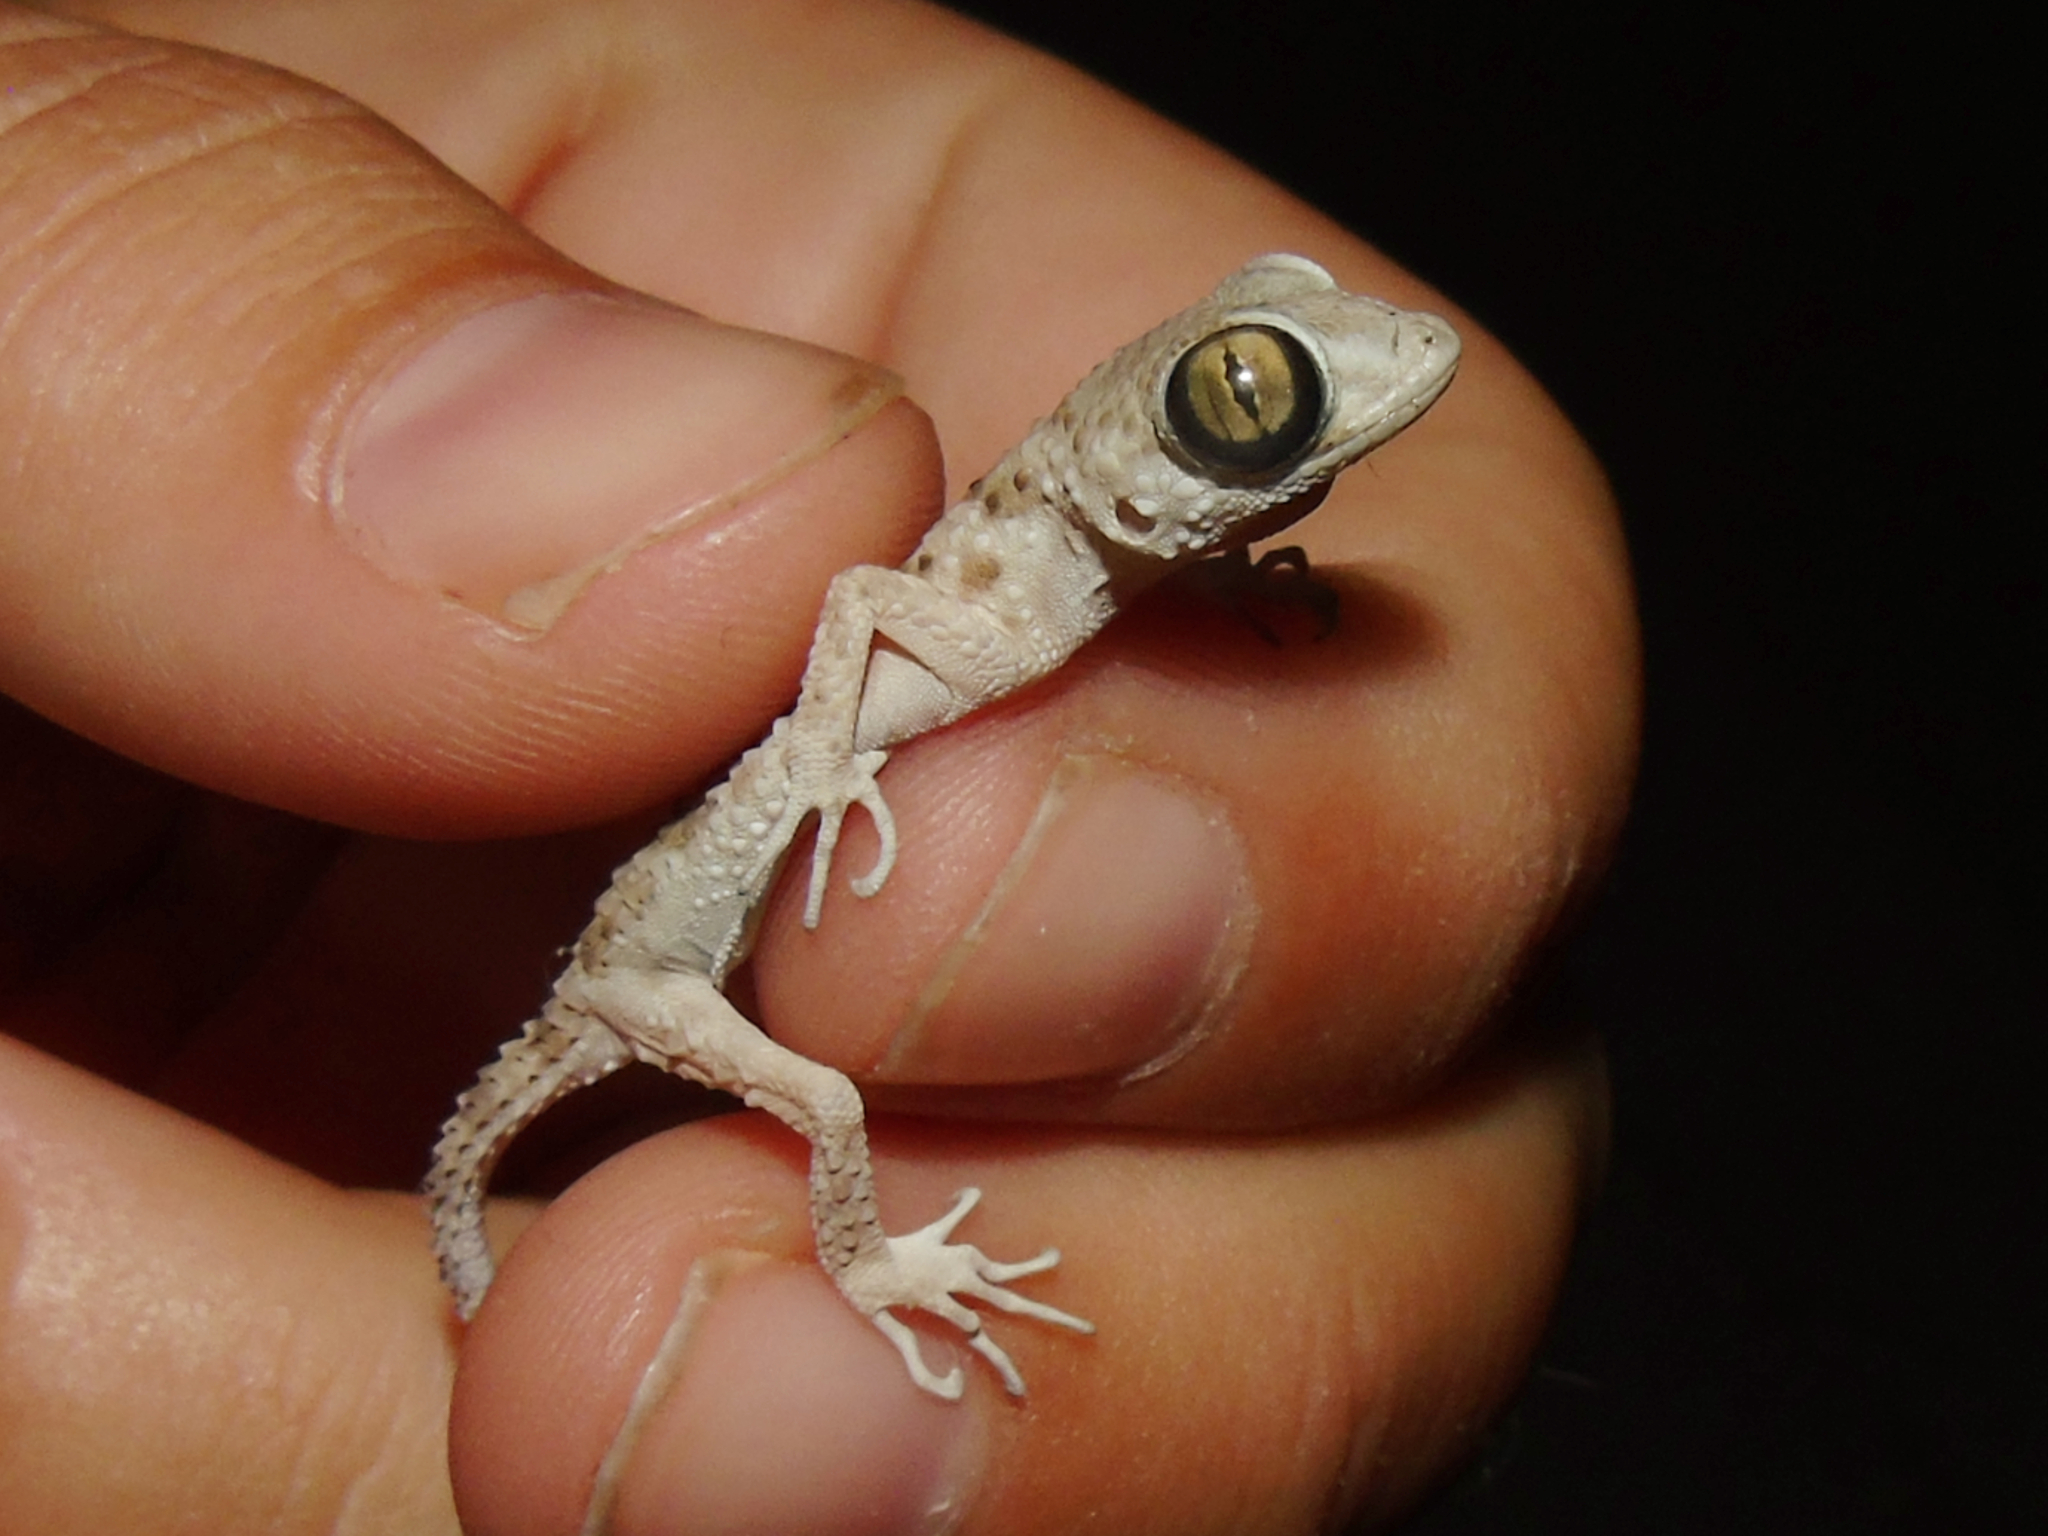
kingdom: Animalia
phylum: Chordata
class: Squamata
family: Gekkonidae
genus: Tenuidactylus
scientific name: Tenuidactylus caspius
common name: Caspian bent-toed gecko
